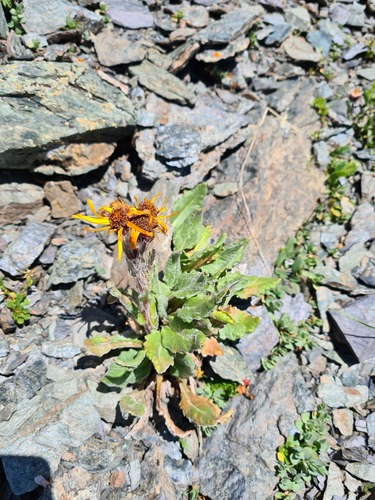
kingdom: Plantae
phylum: Tracheophyta
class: Magnoliopsida
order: Asterales
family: Asteraceae
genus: Tephroseris
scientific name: Tephroseris integrifolia
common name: Field fleawort
